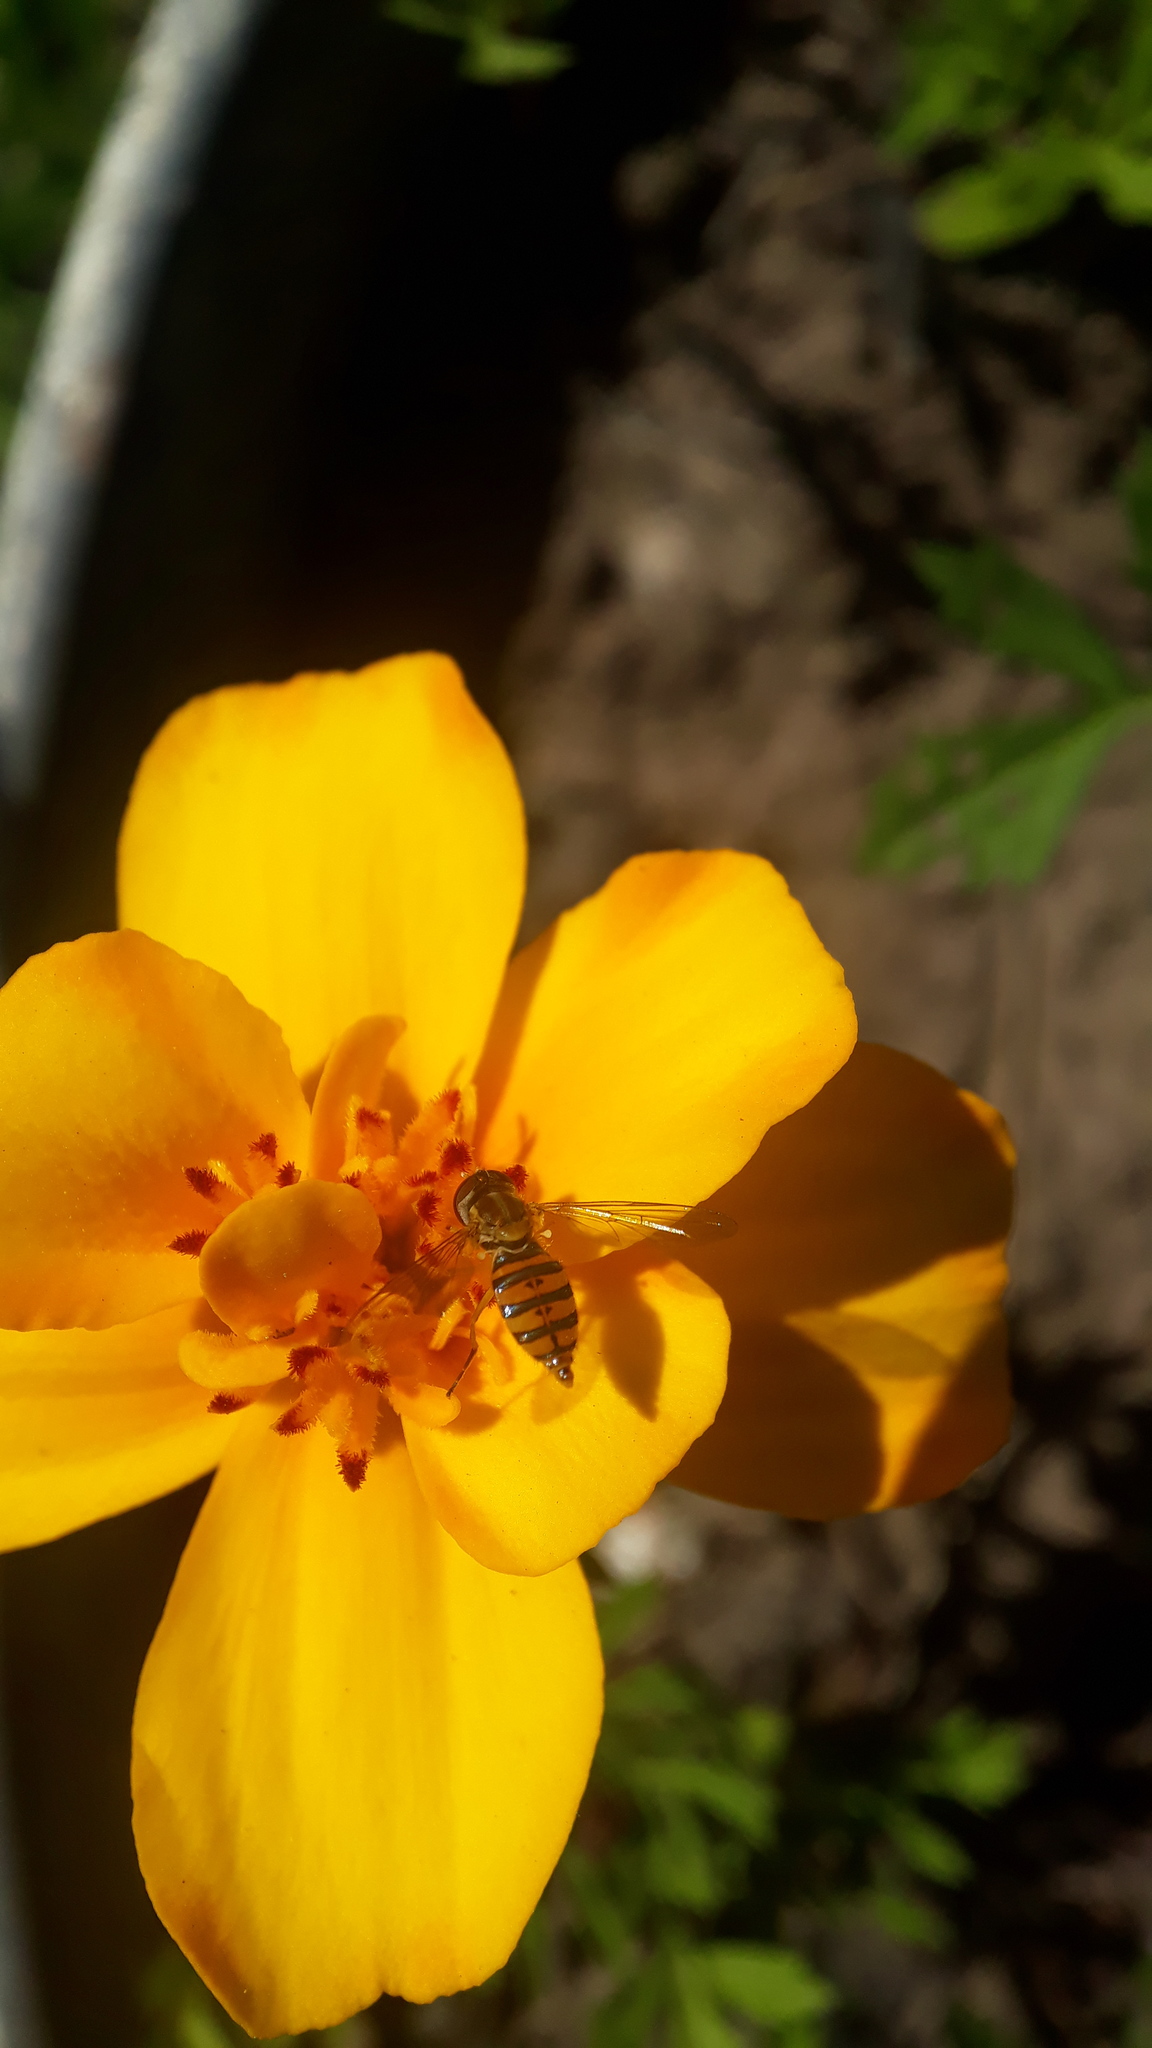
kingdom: Animalia
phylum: Arthropoda
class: Insecta
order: Diptera
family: Syrphidae
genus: Toxomerus
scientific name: Toxomerus
